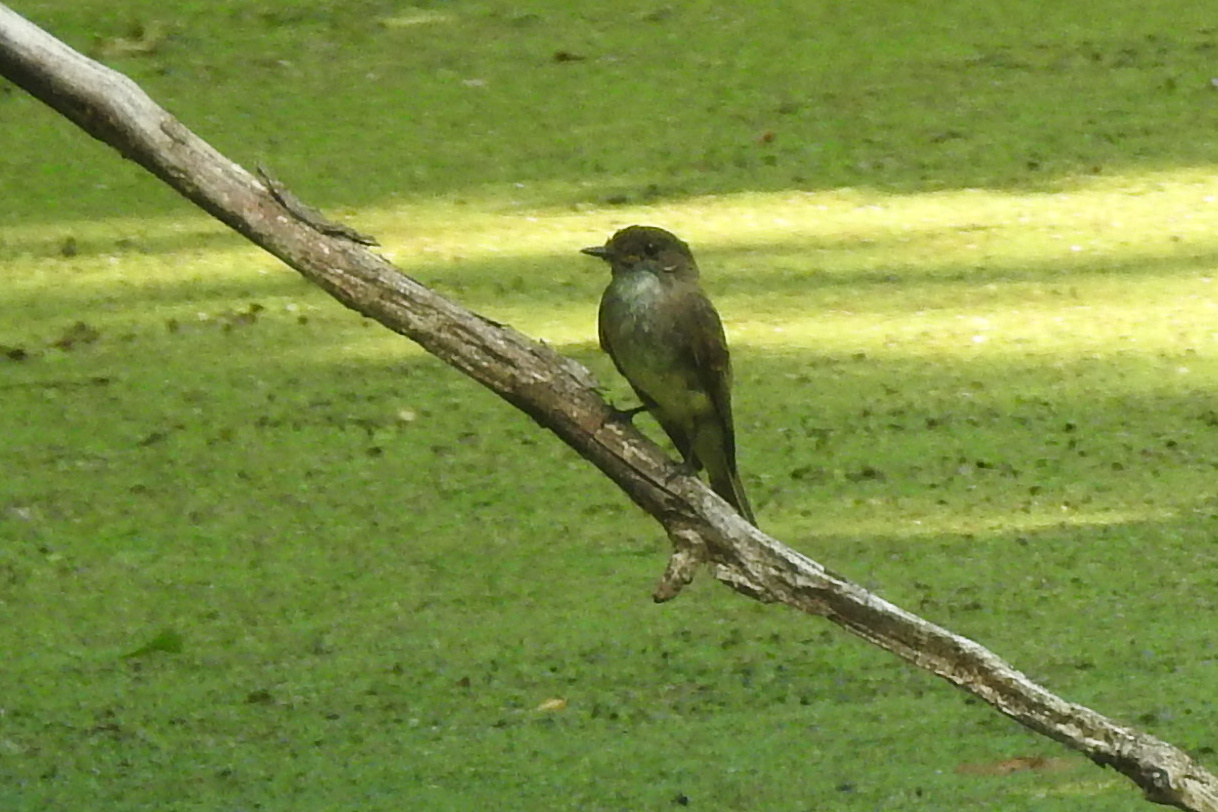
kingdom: Animalia
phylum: Chordata
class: Aves
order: Passeriformes
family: Tyrannidae
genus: Sayornis
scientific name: Sayornis phoebe
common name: Eastern phoebe
